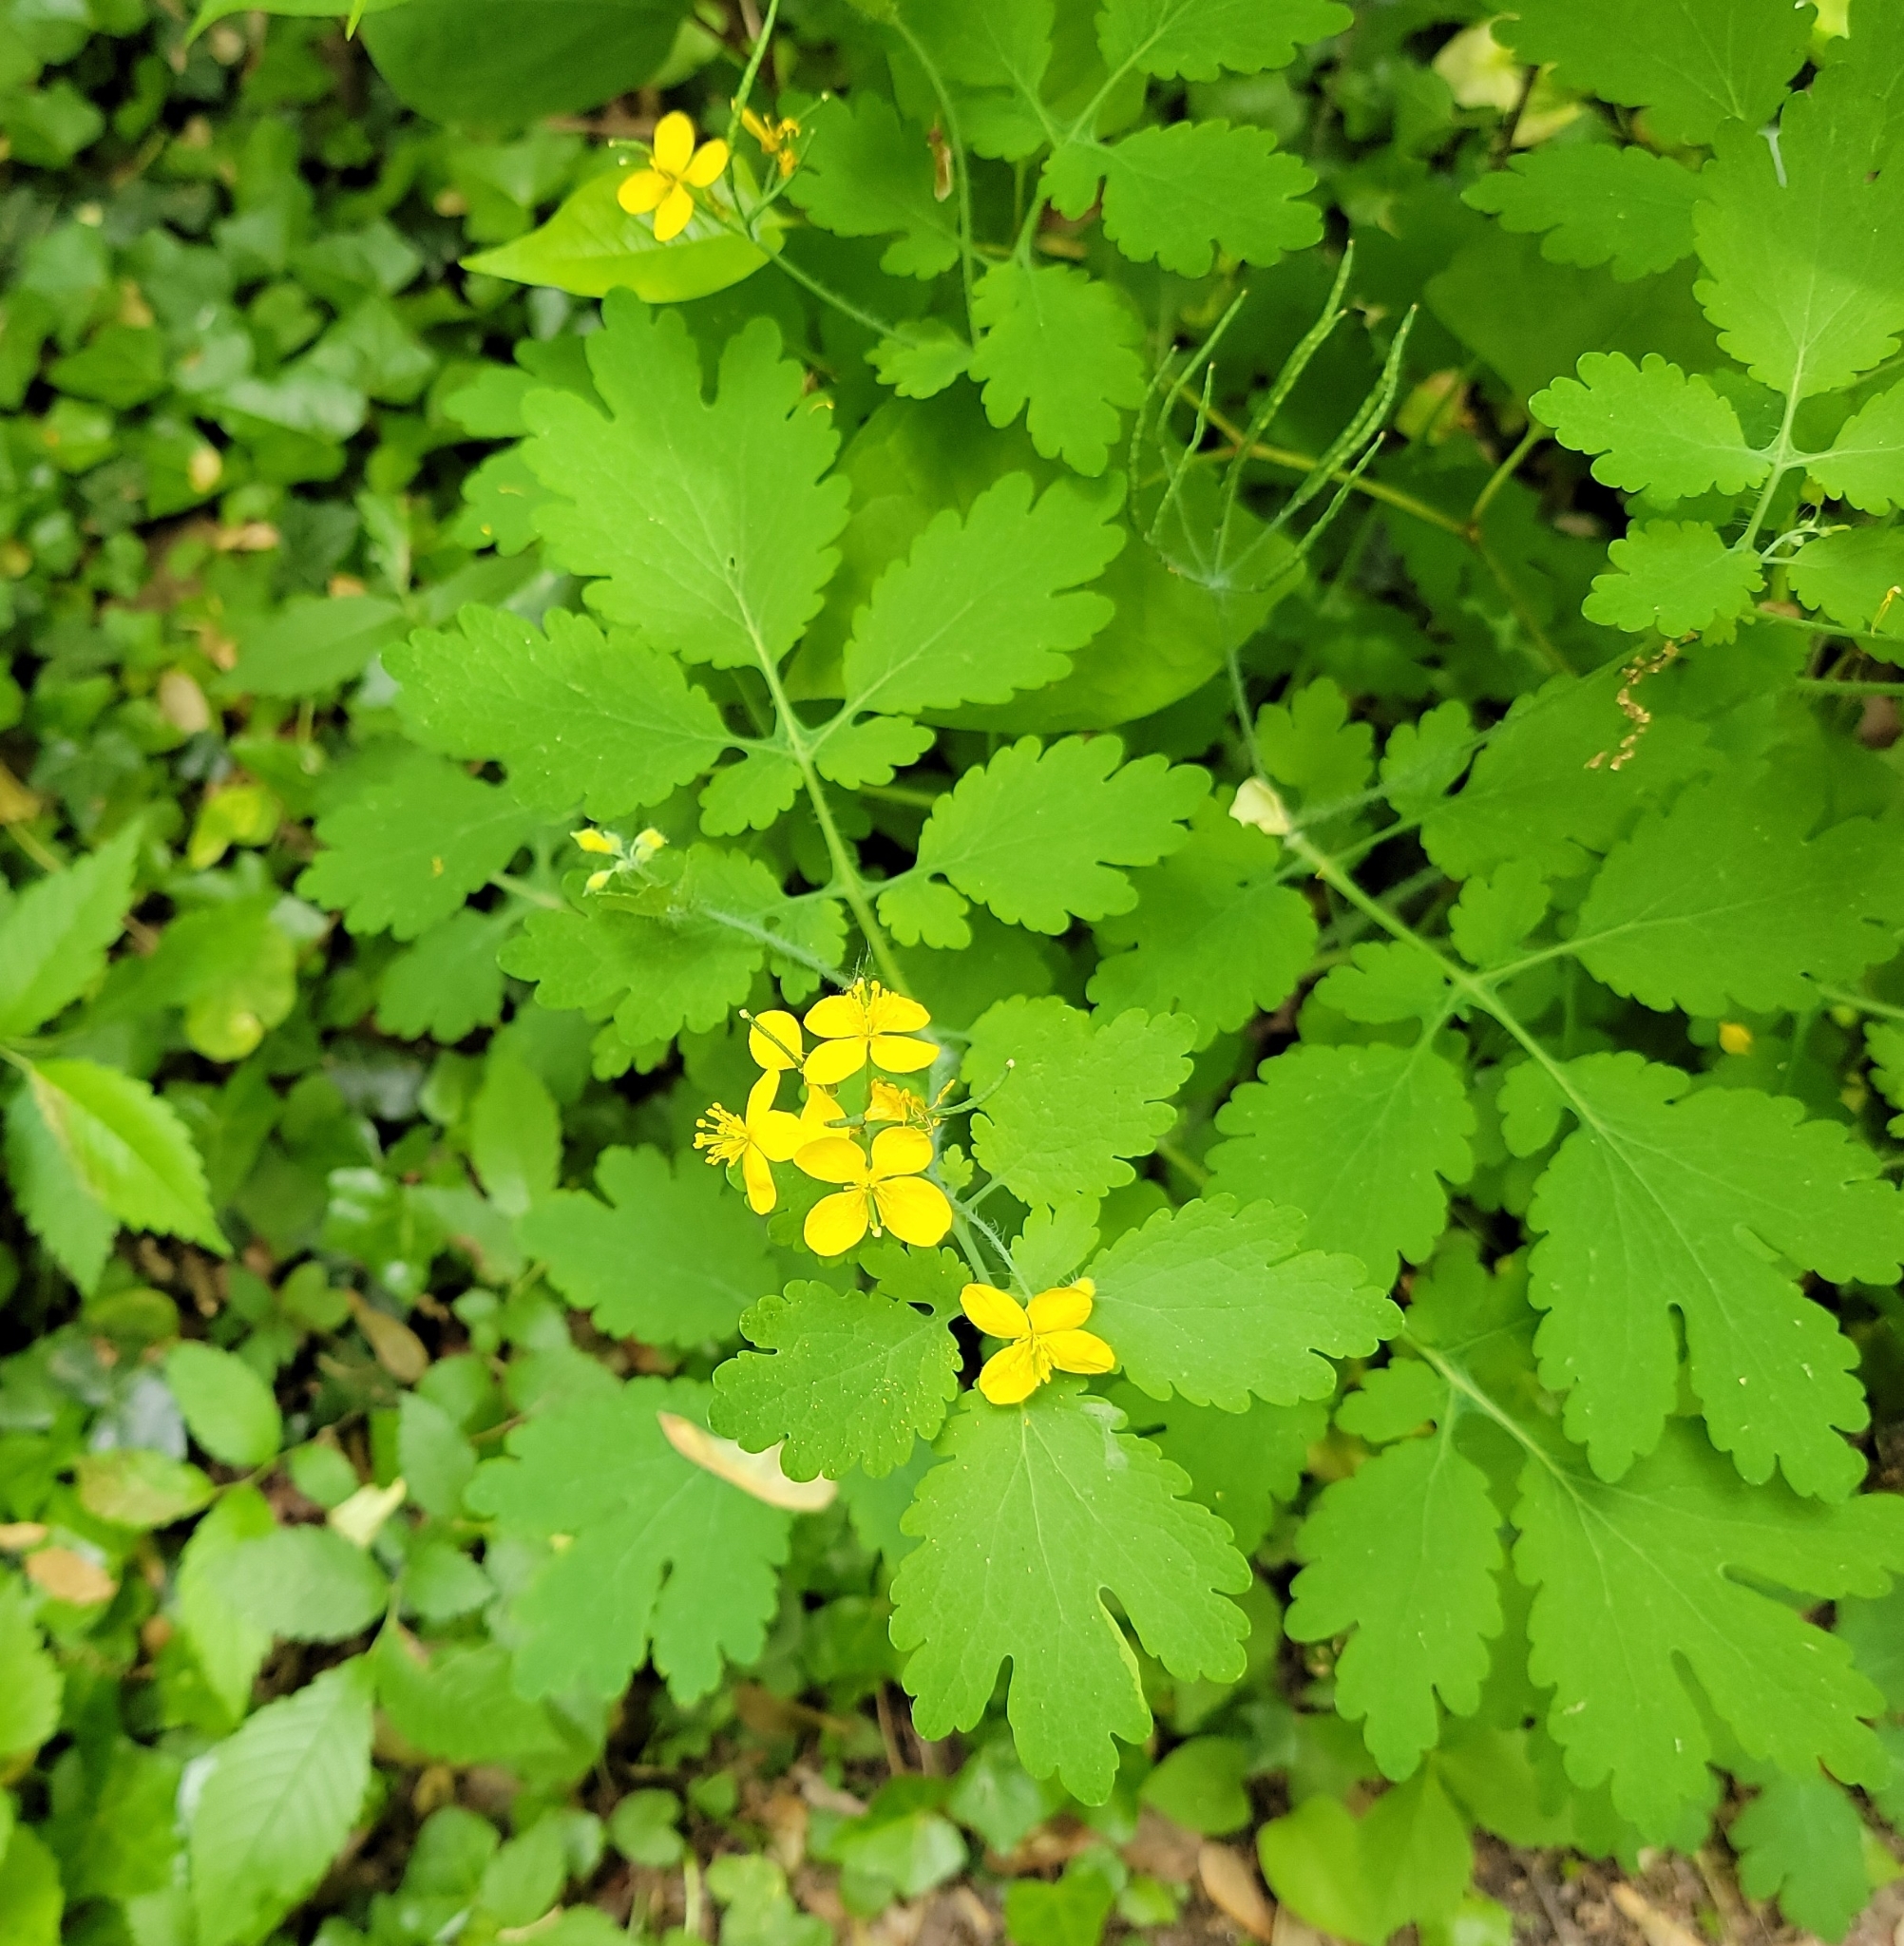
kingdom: Plantae
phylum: Tracheophyta
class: Magnoliopsida
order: Ranunculales
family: Papaveraceae
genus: Chelidonium
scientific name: Chelidonium majus
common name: Greater celandine
